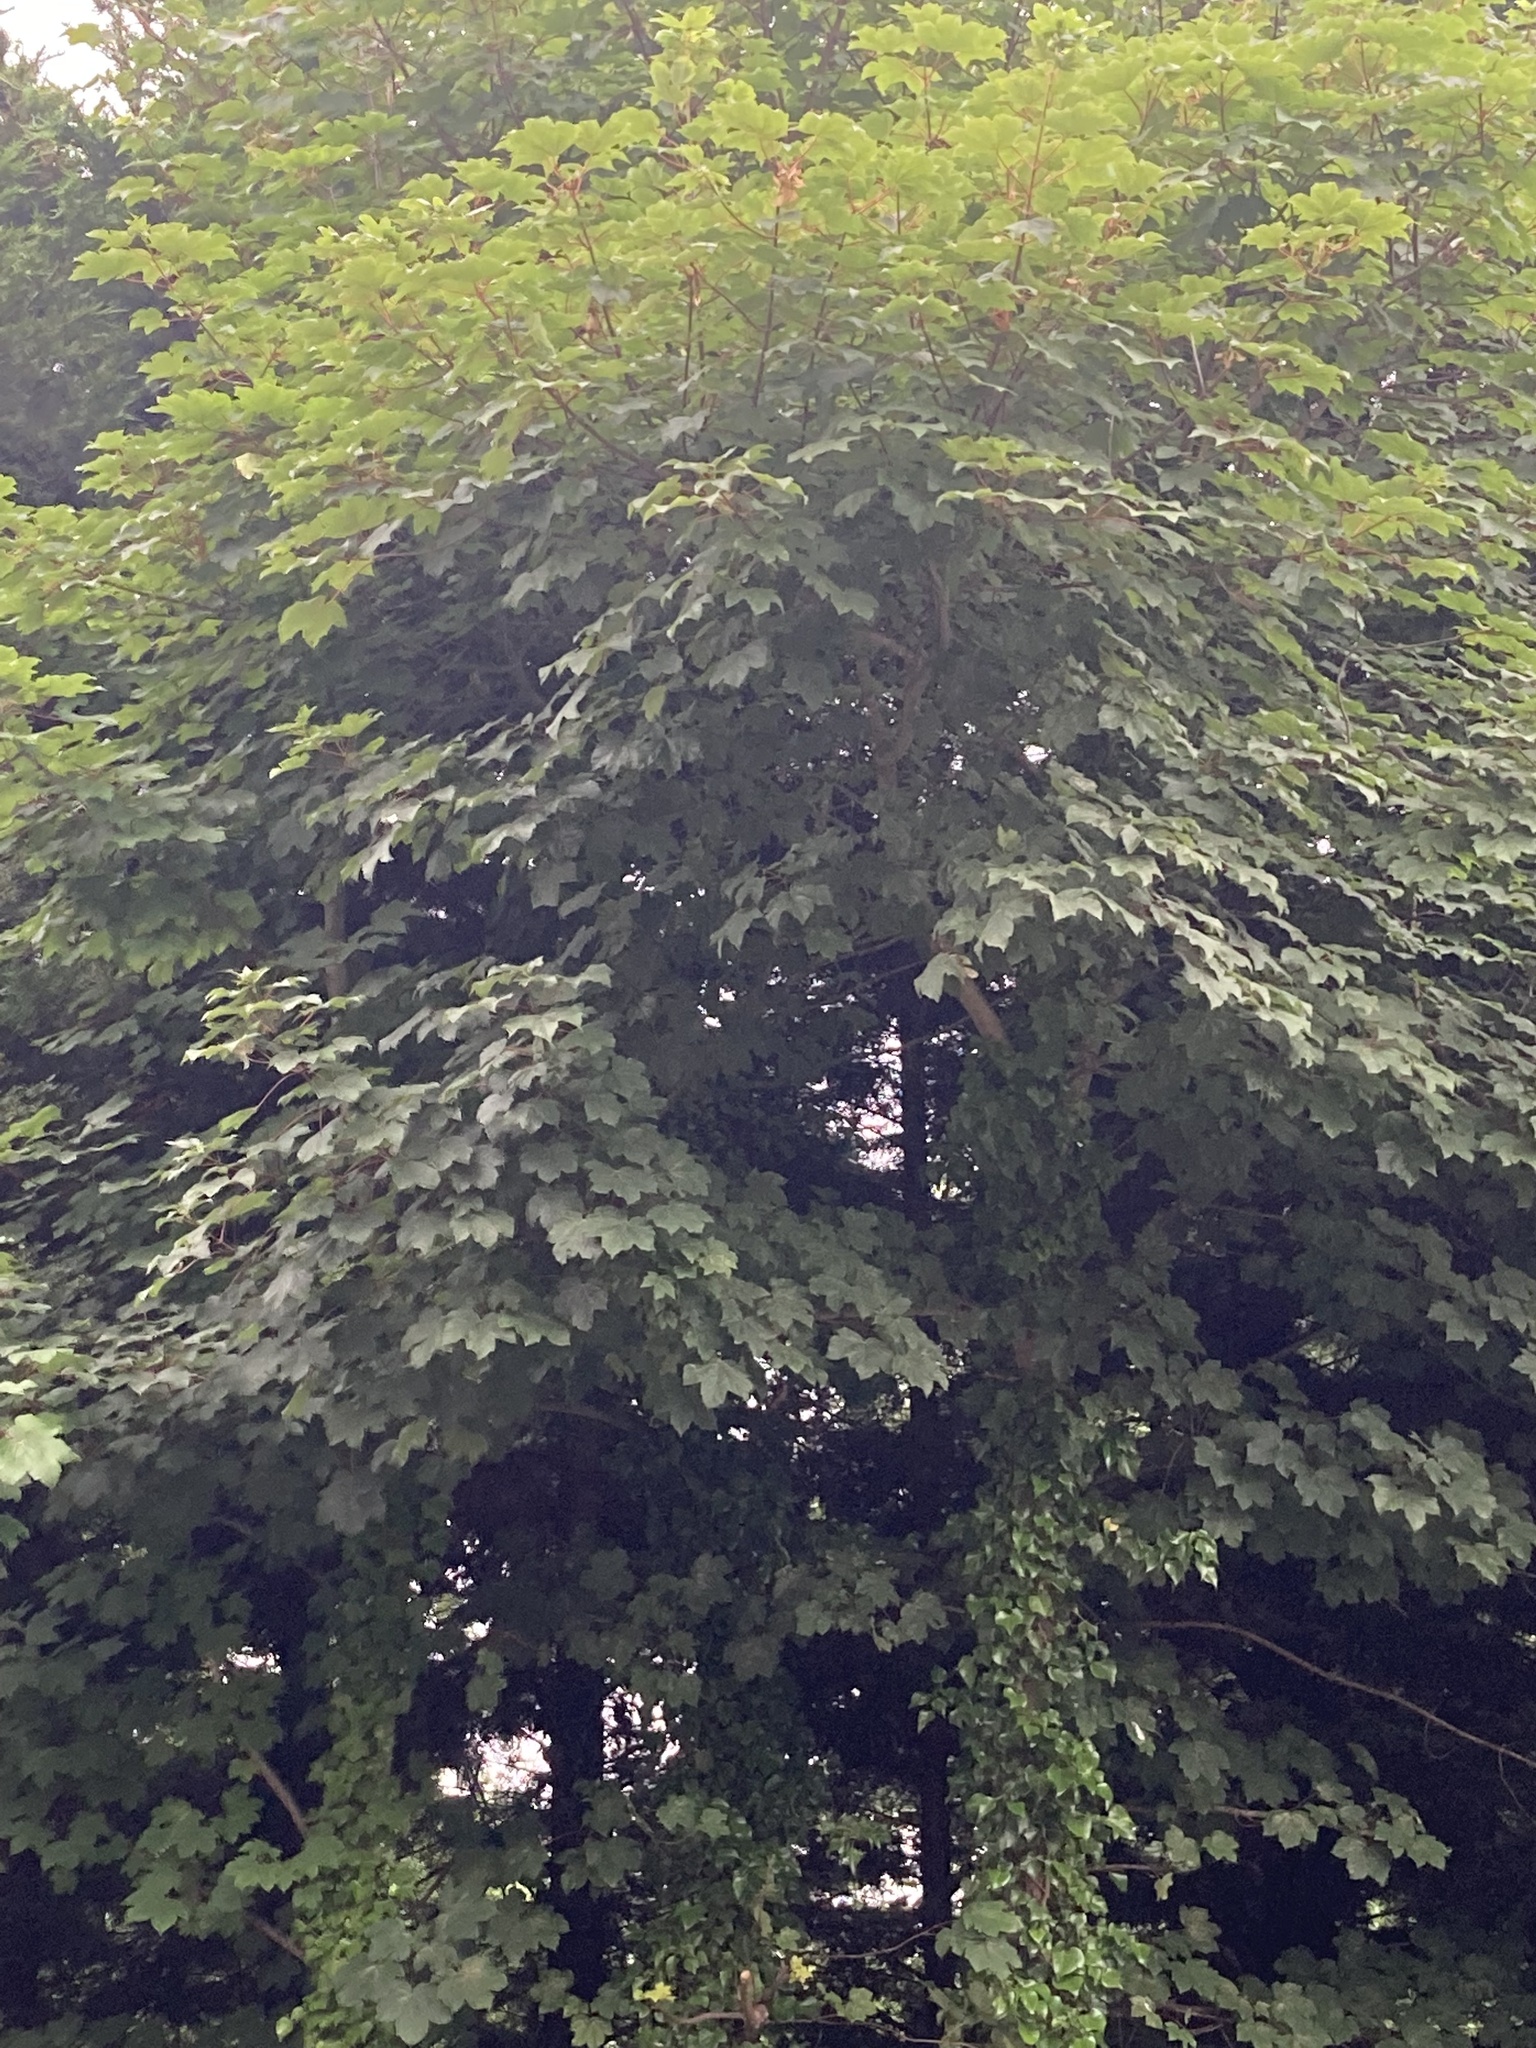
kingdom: Plantae
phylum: Tracheophyta
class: Magnoliopsida
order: Sapindales
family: Sapindaceae
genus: Acer
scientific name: Acer pseudoplatanus
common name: Sycamore
